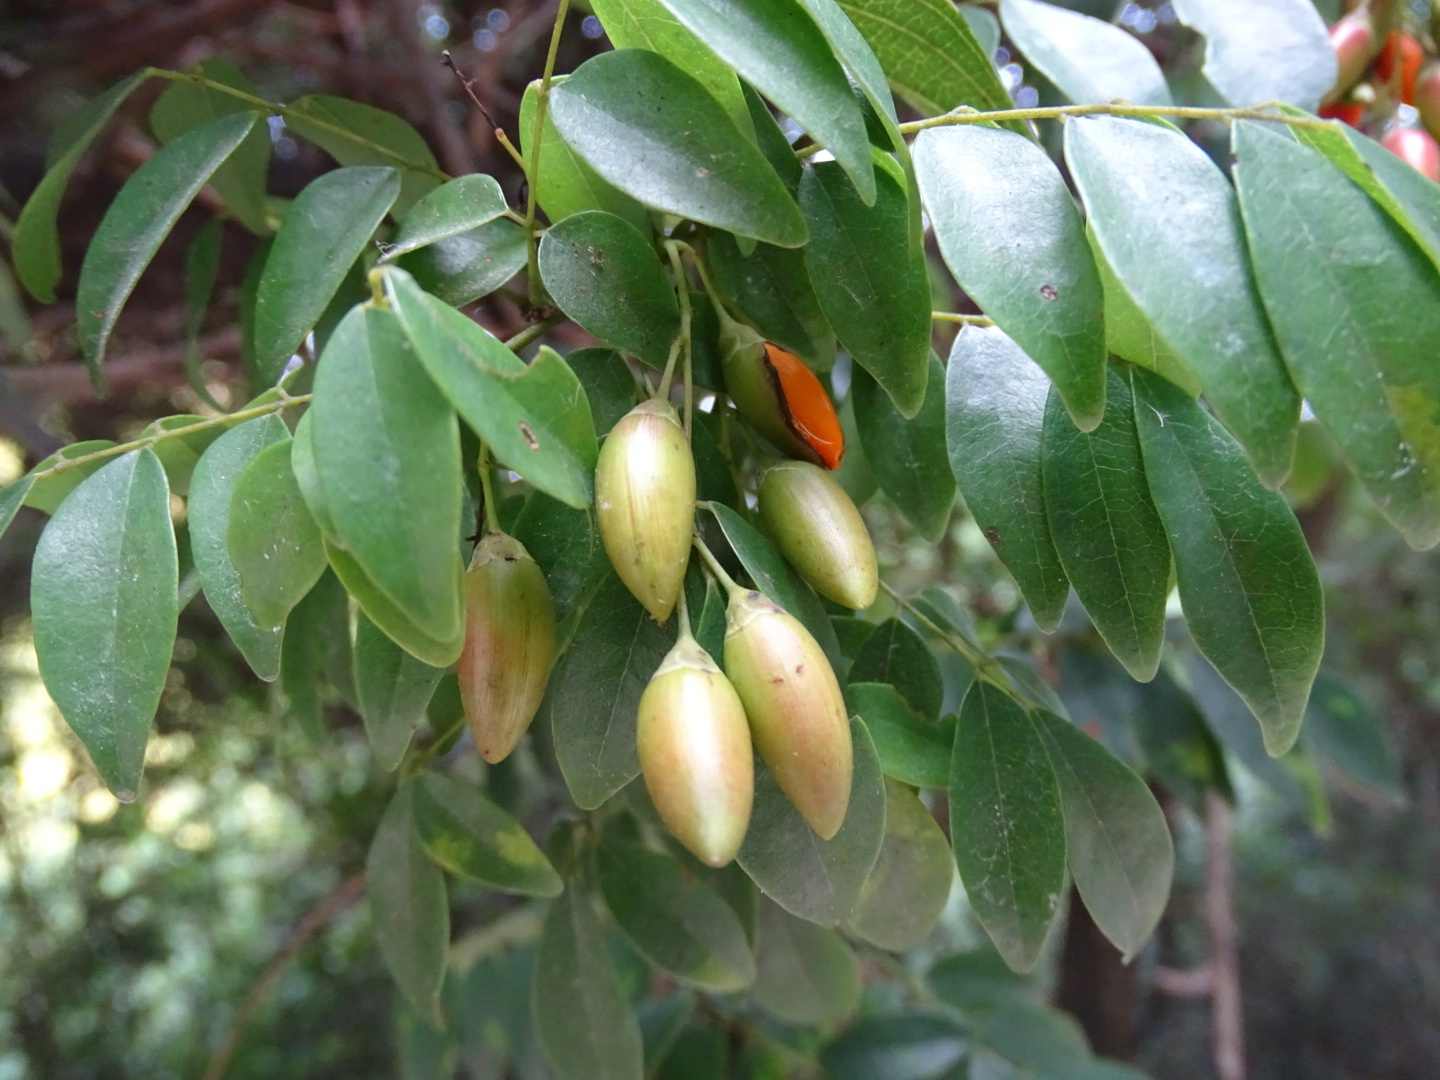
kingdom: Plantae
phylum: Tracheophyta
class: Magnoliopsida
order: Oxalidales
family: Connaraceae
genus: Rourea
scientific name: Rourea microphylla
